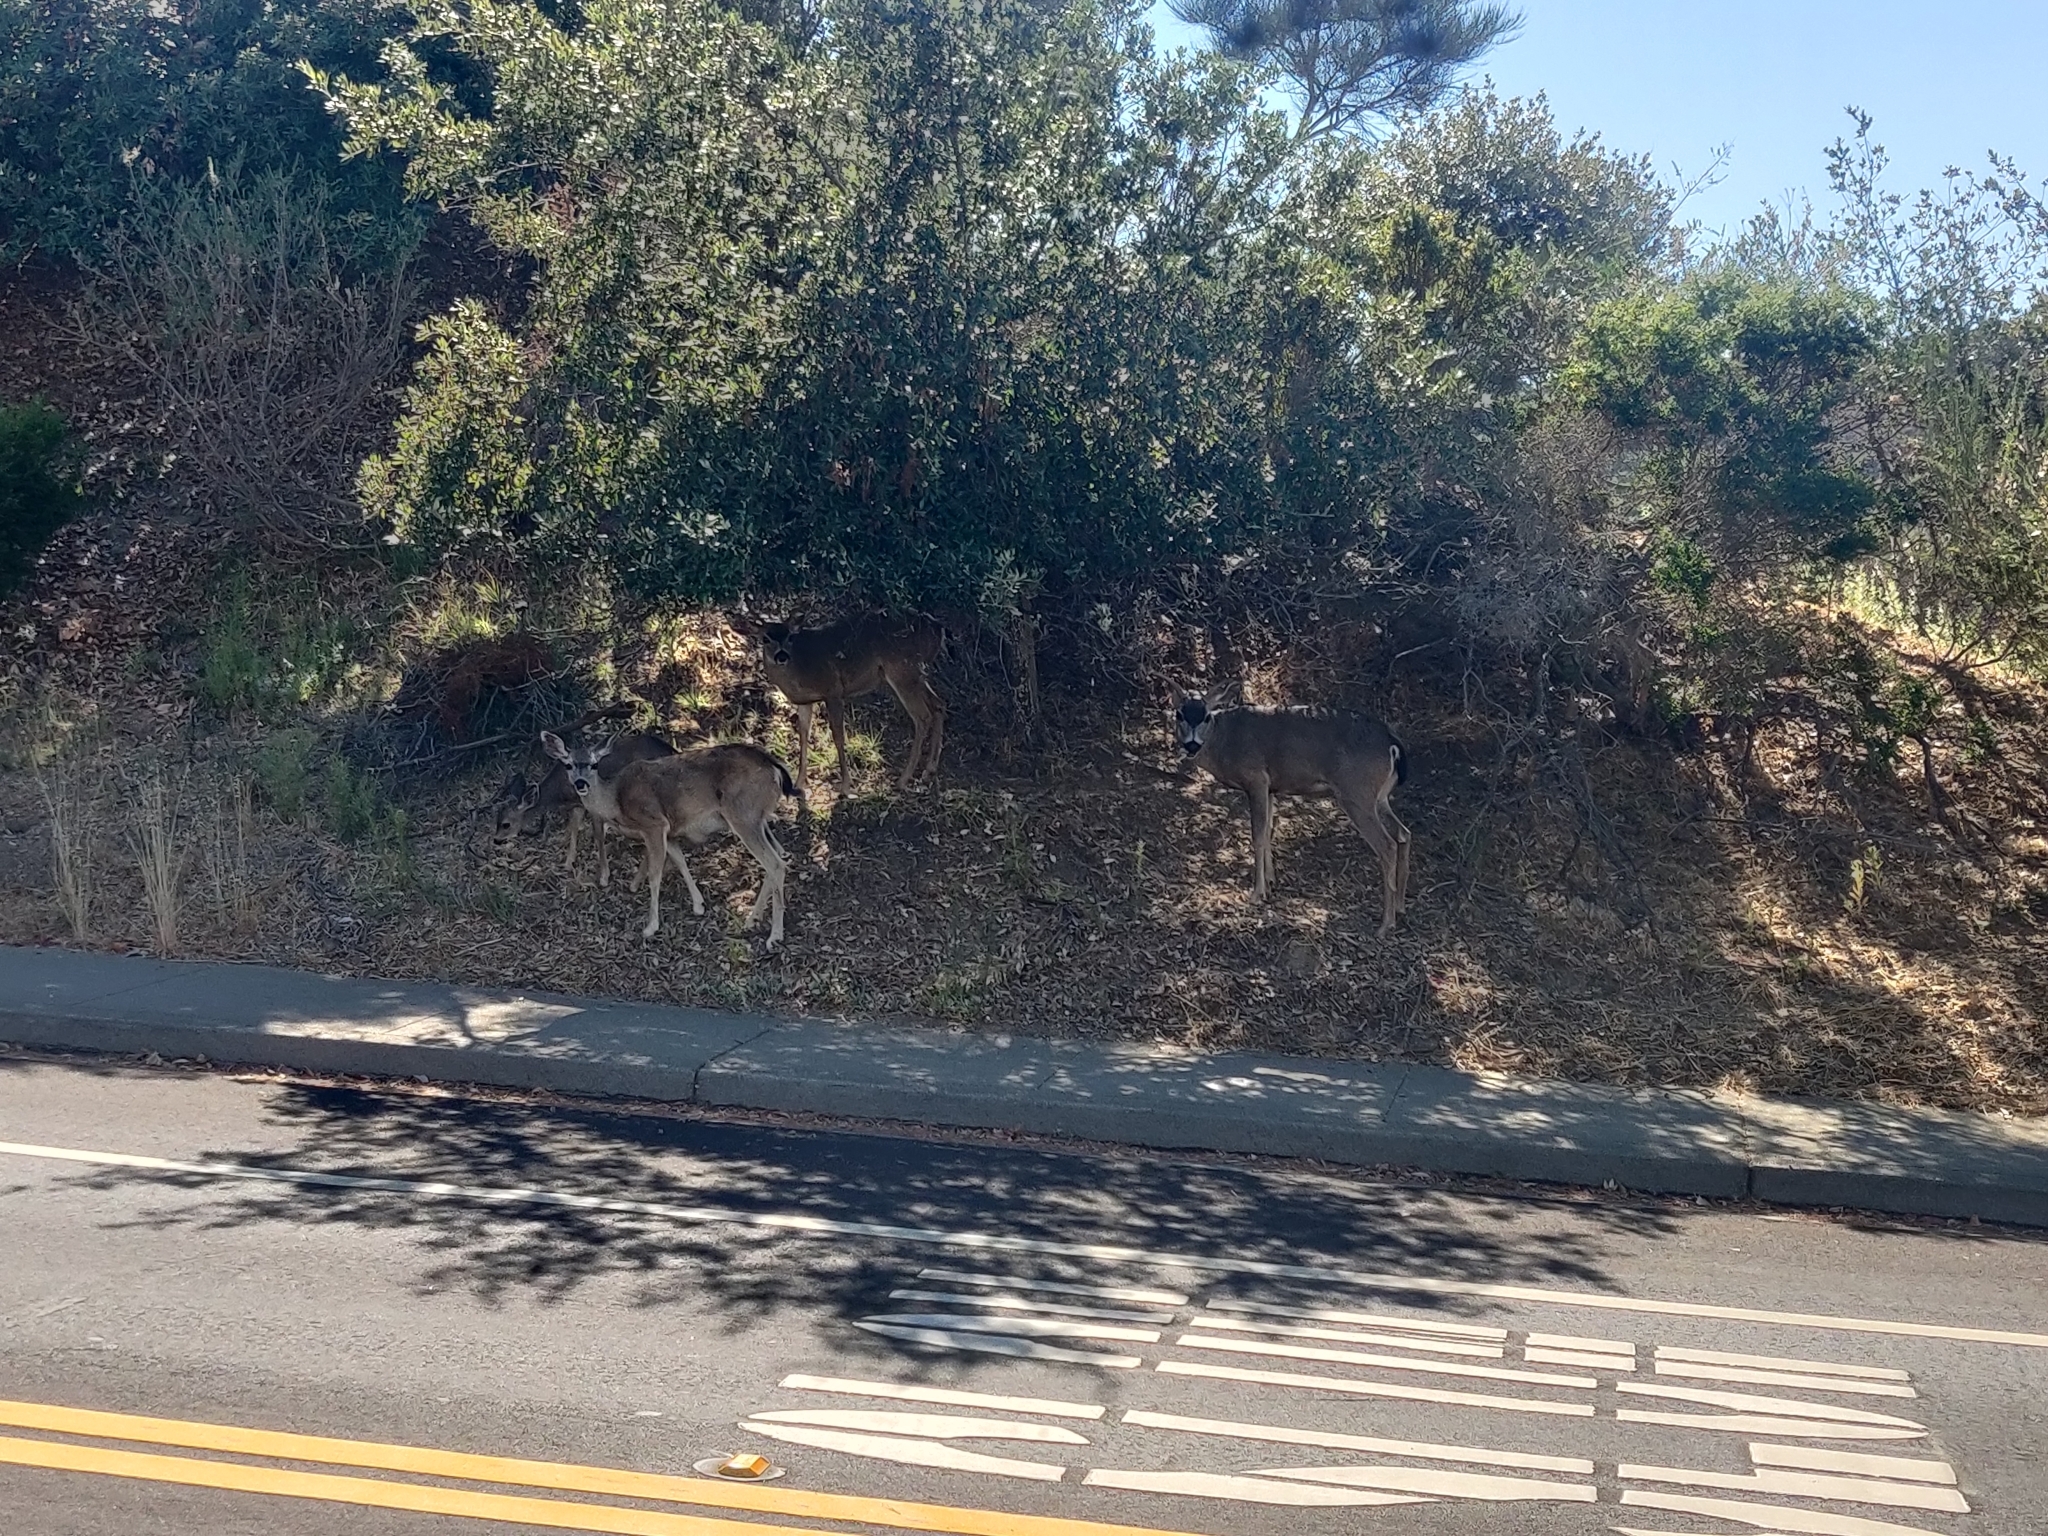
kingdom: Animalia
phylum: Chordata
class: Mammalia
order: Artiodactyla
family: Cervidae
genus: Odocoileus
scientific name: Odocoileus hemionus
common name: Mule deer
